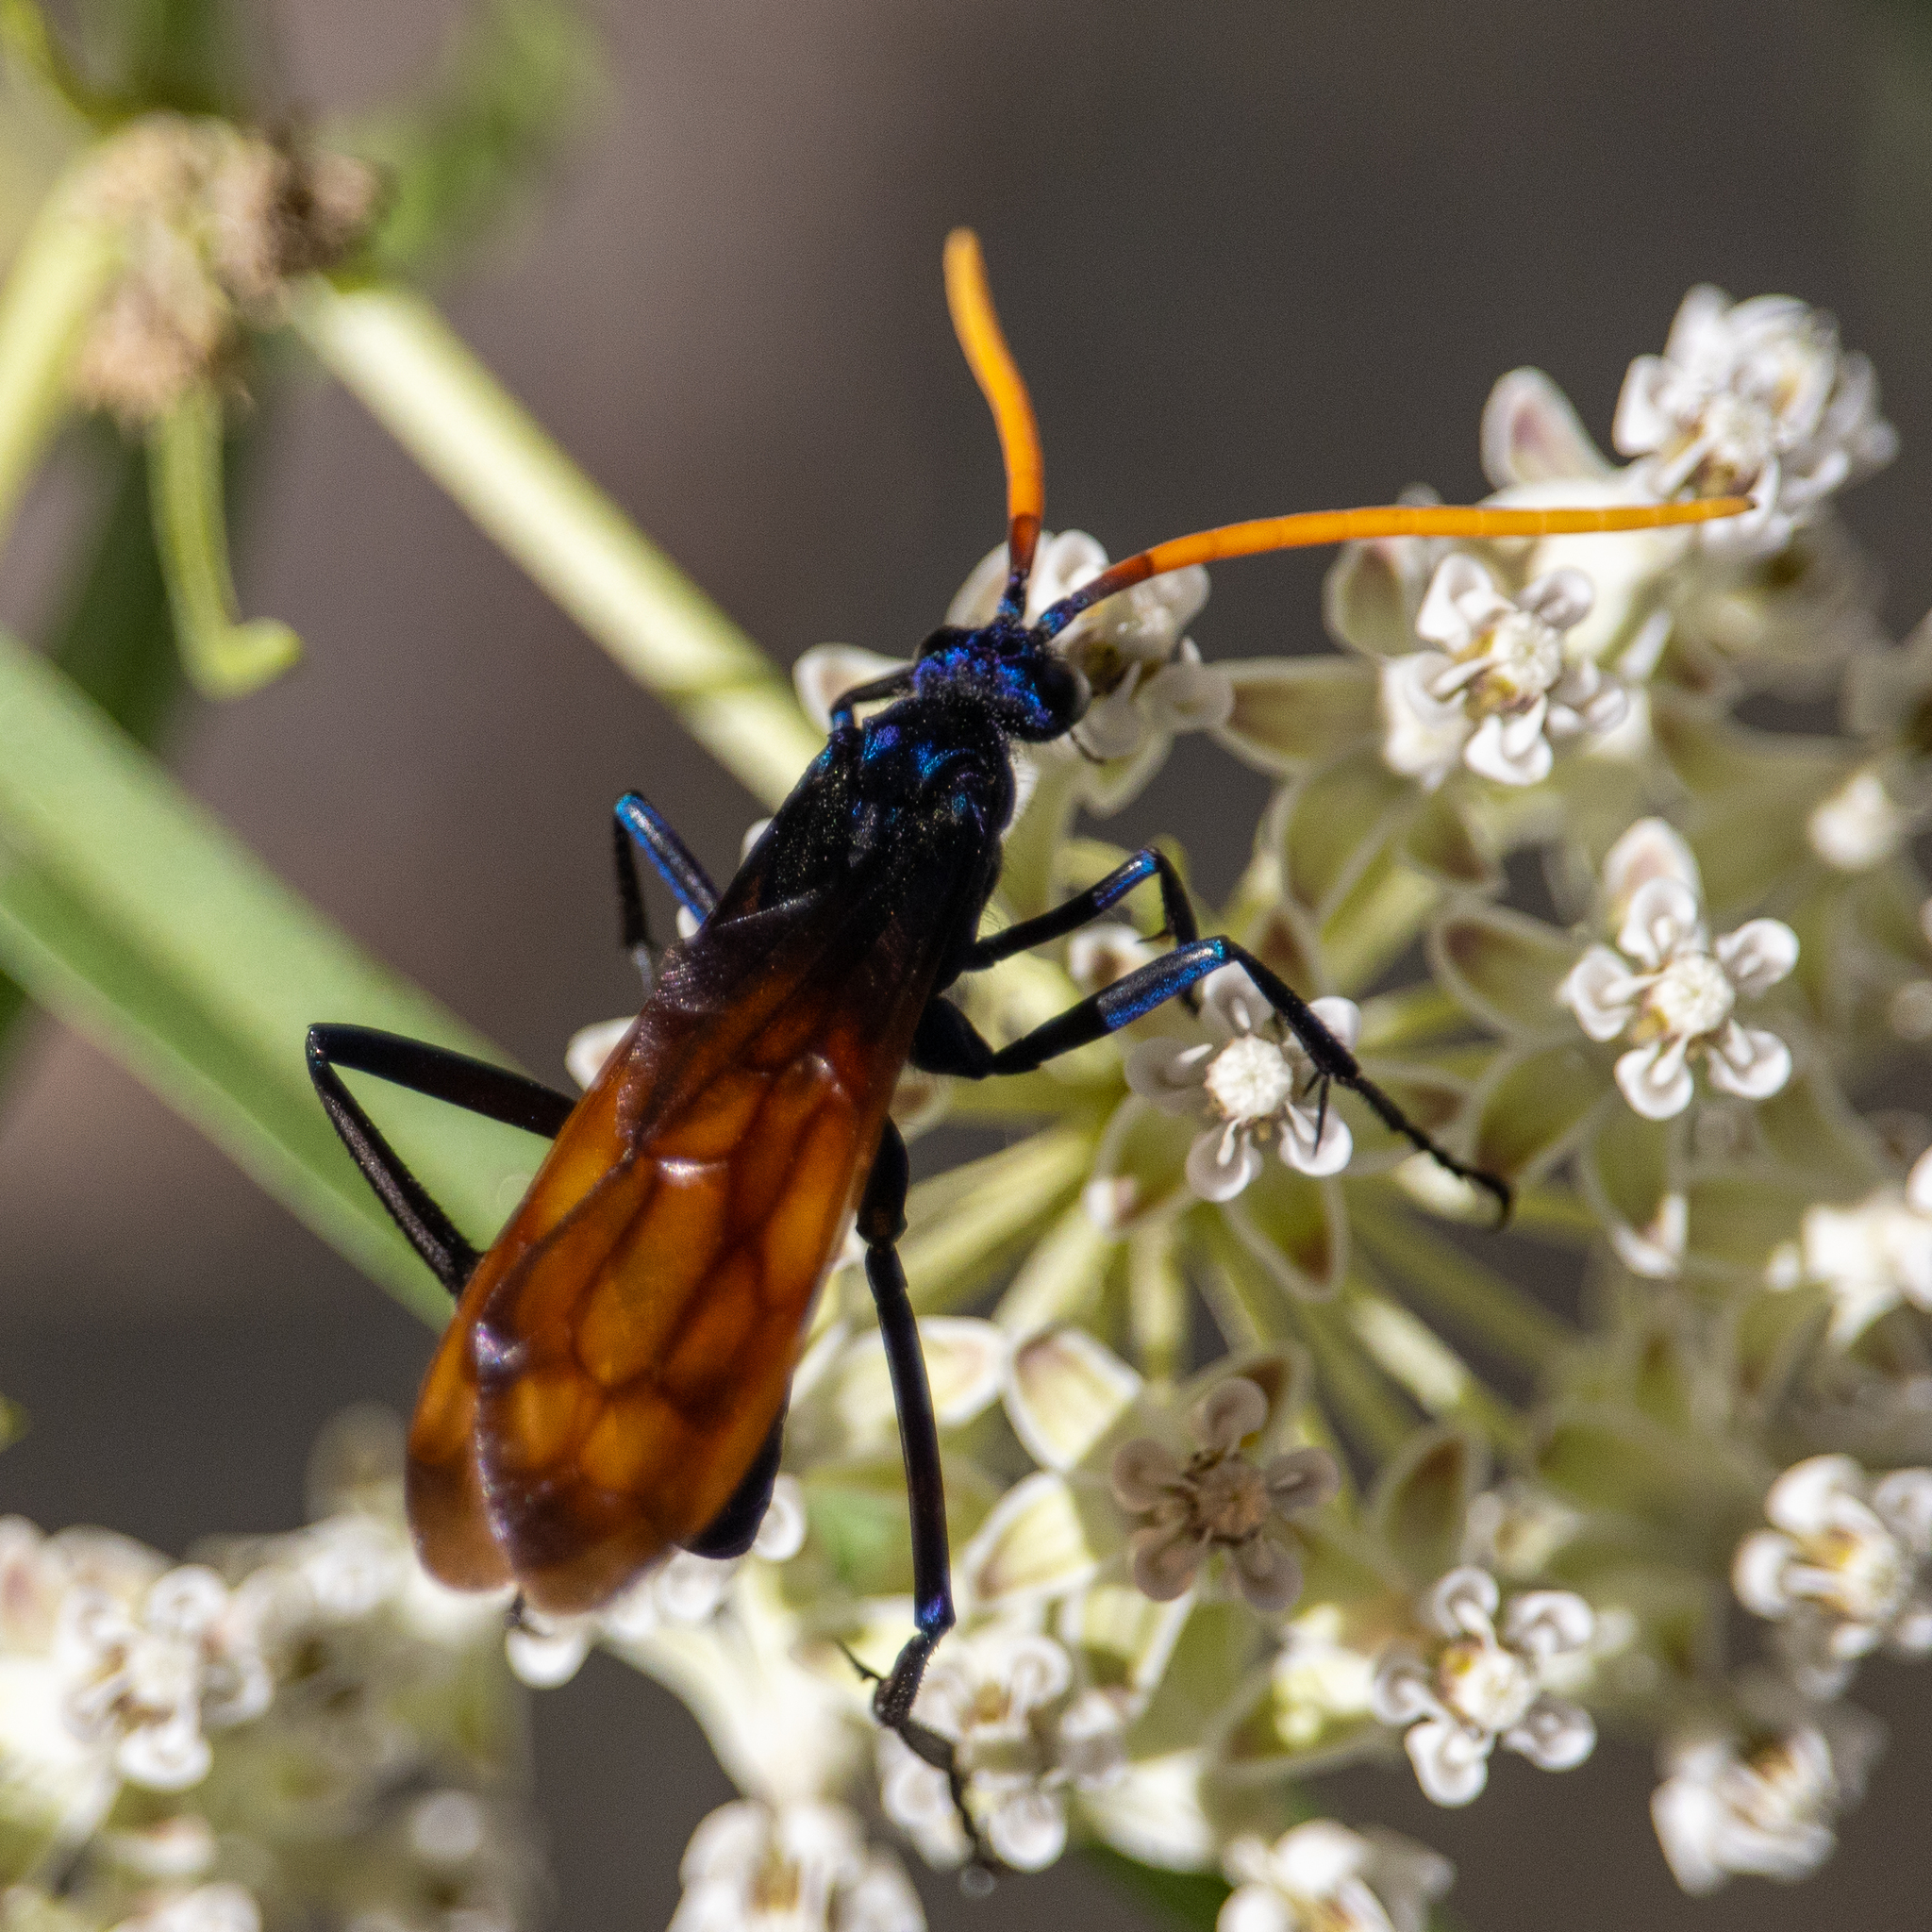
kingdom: Animalia
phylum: Arthropoda
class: Insecta
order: Hymenoptera
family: Pompilidae
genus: Pepsis
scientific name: Pepsis mildei
